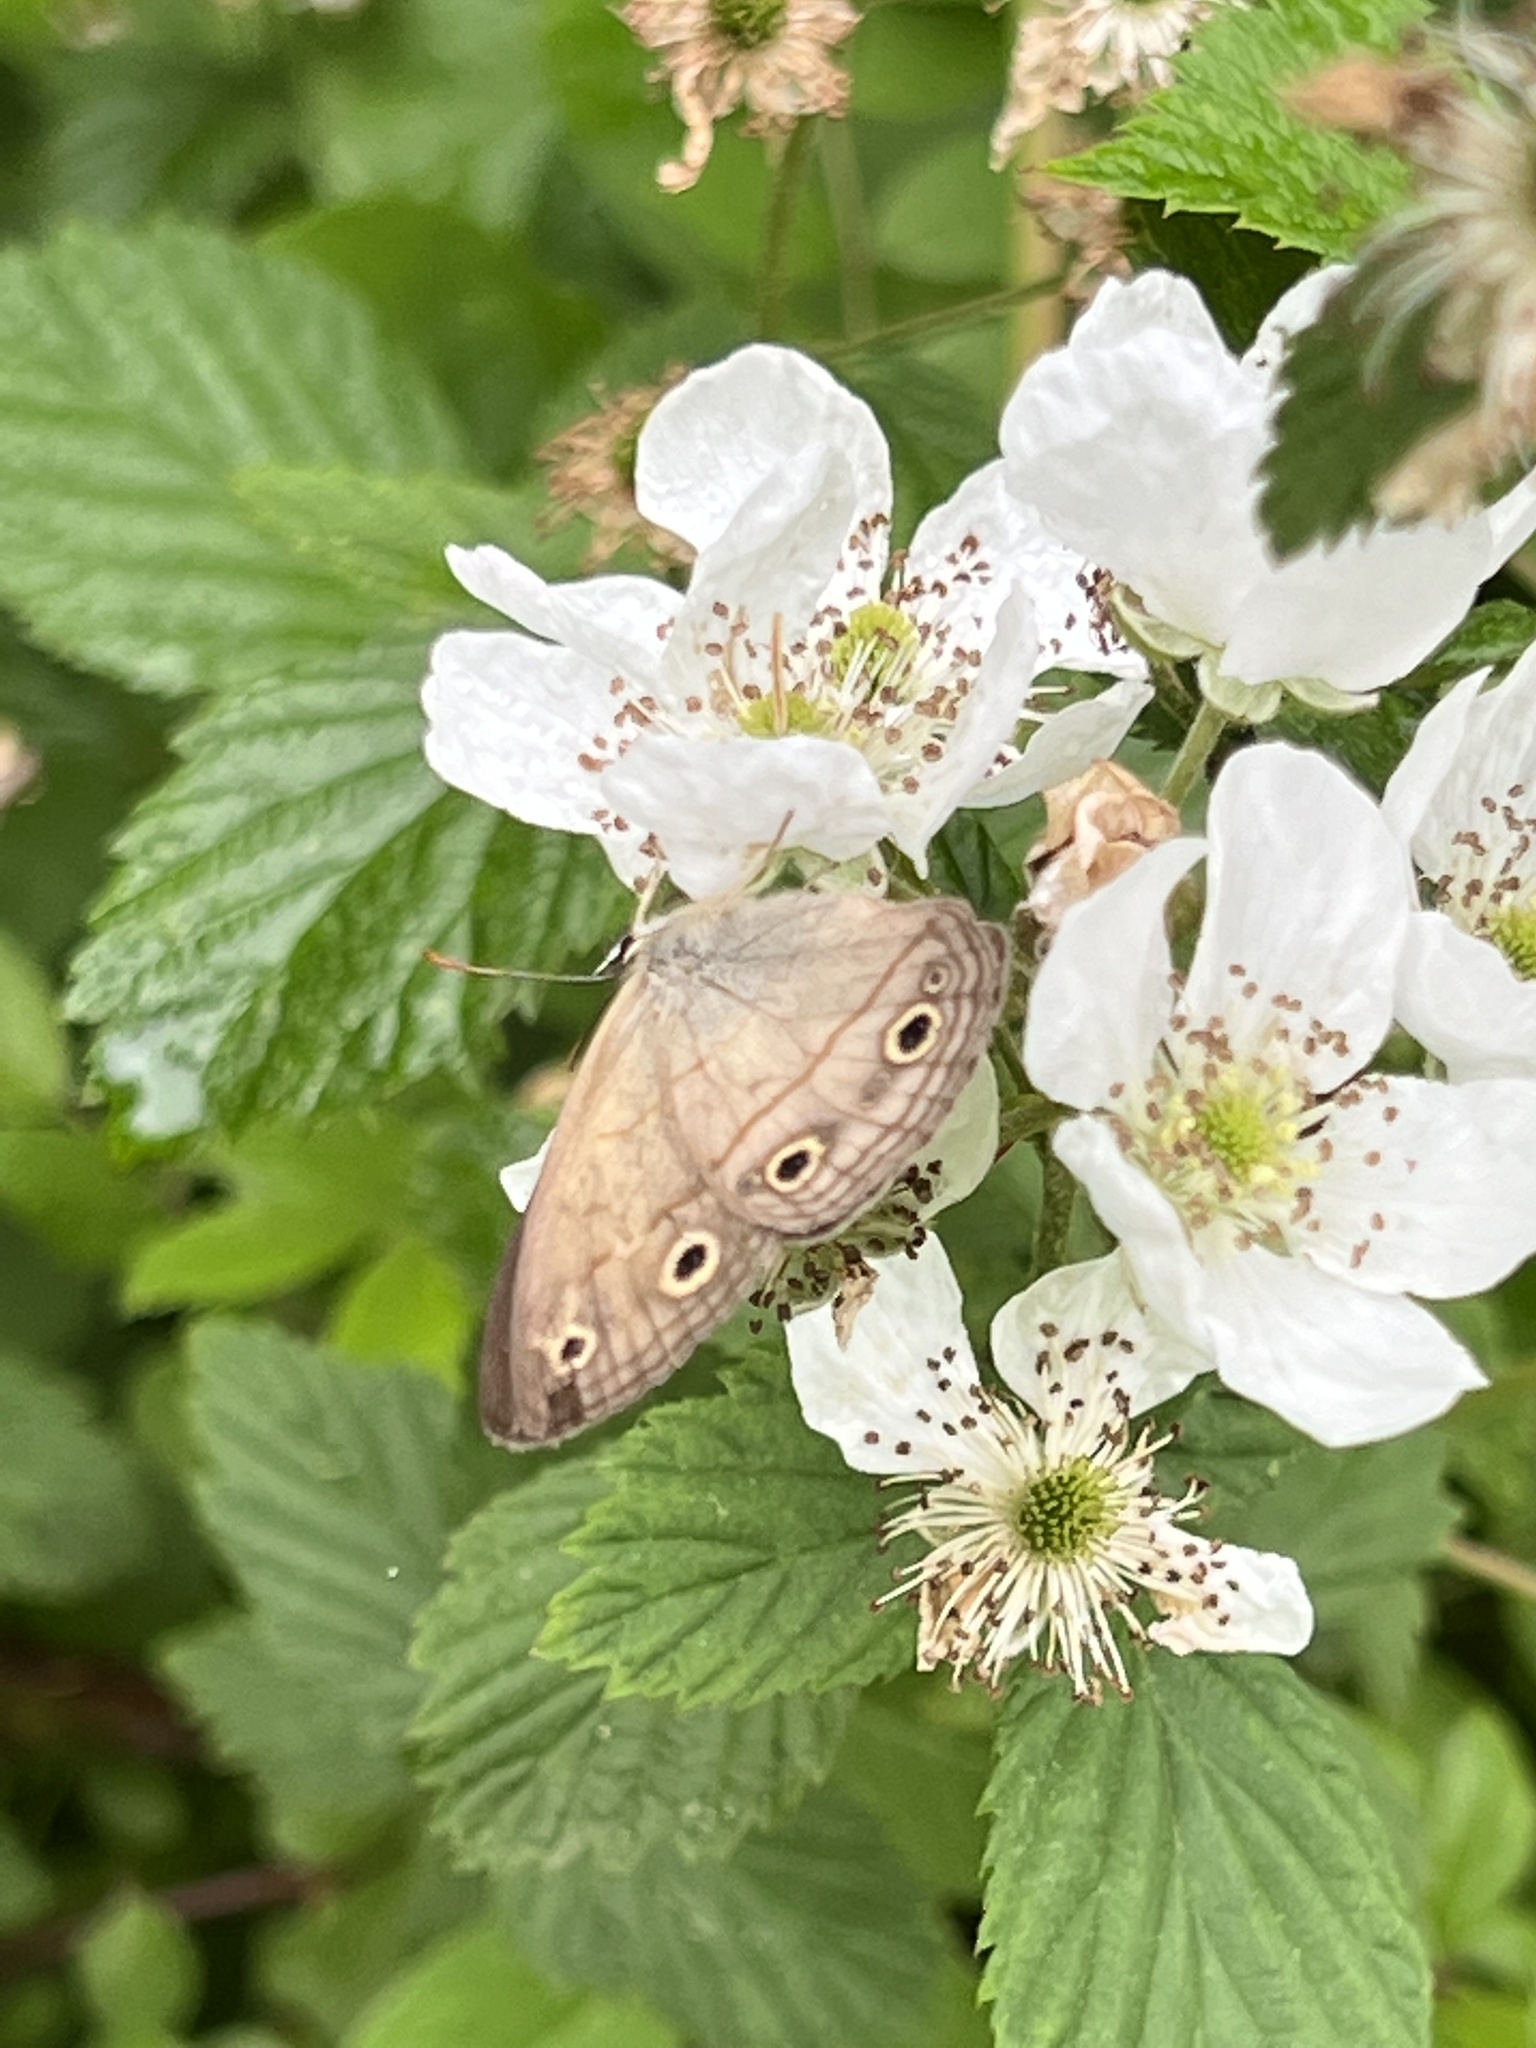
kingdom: Animalia
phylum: Arthropoda
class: Insecta
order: Lepidoptera
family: Nymphalidae
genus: Euptychia
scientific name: Euptychia cymela
